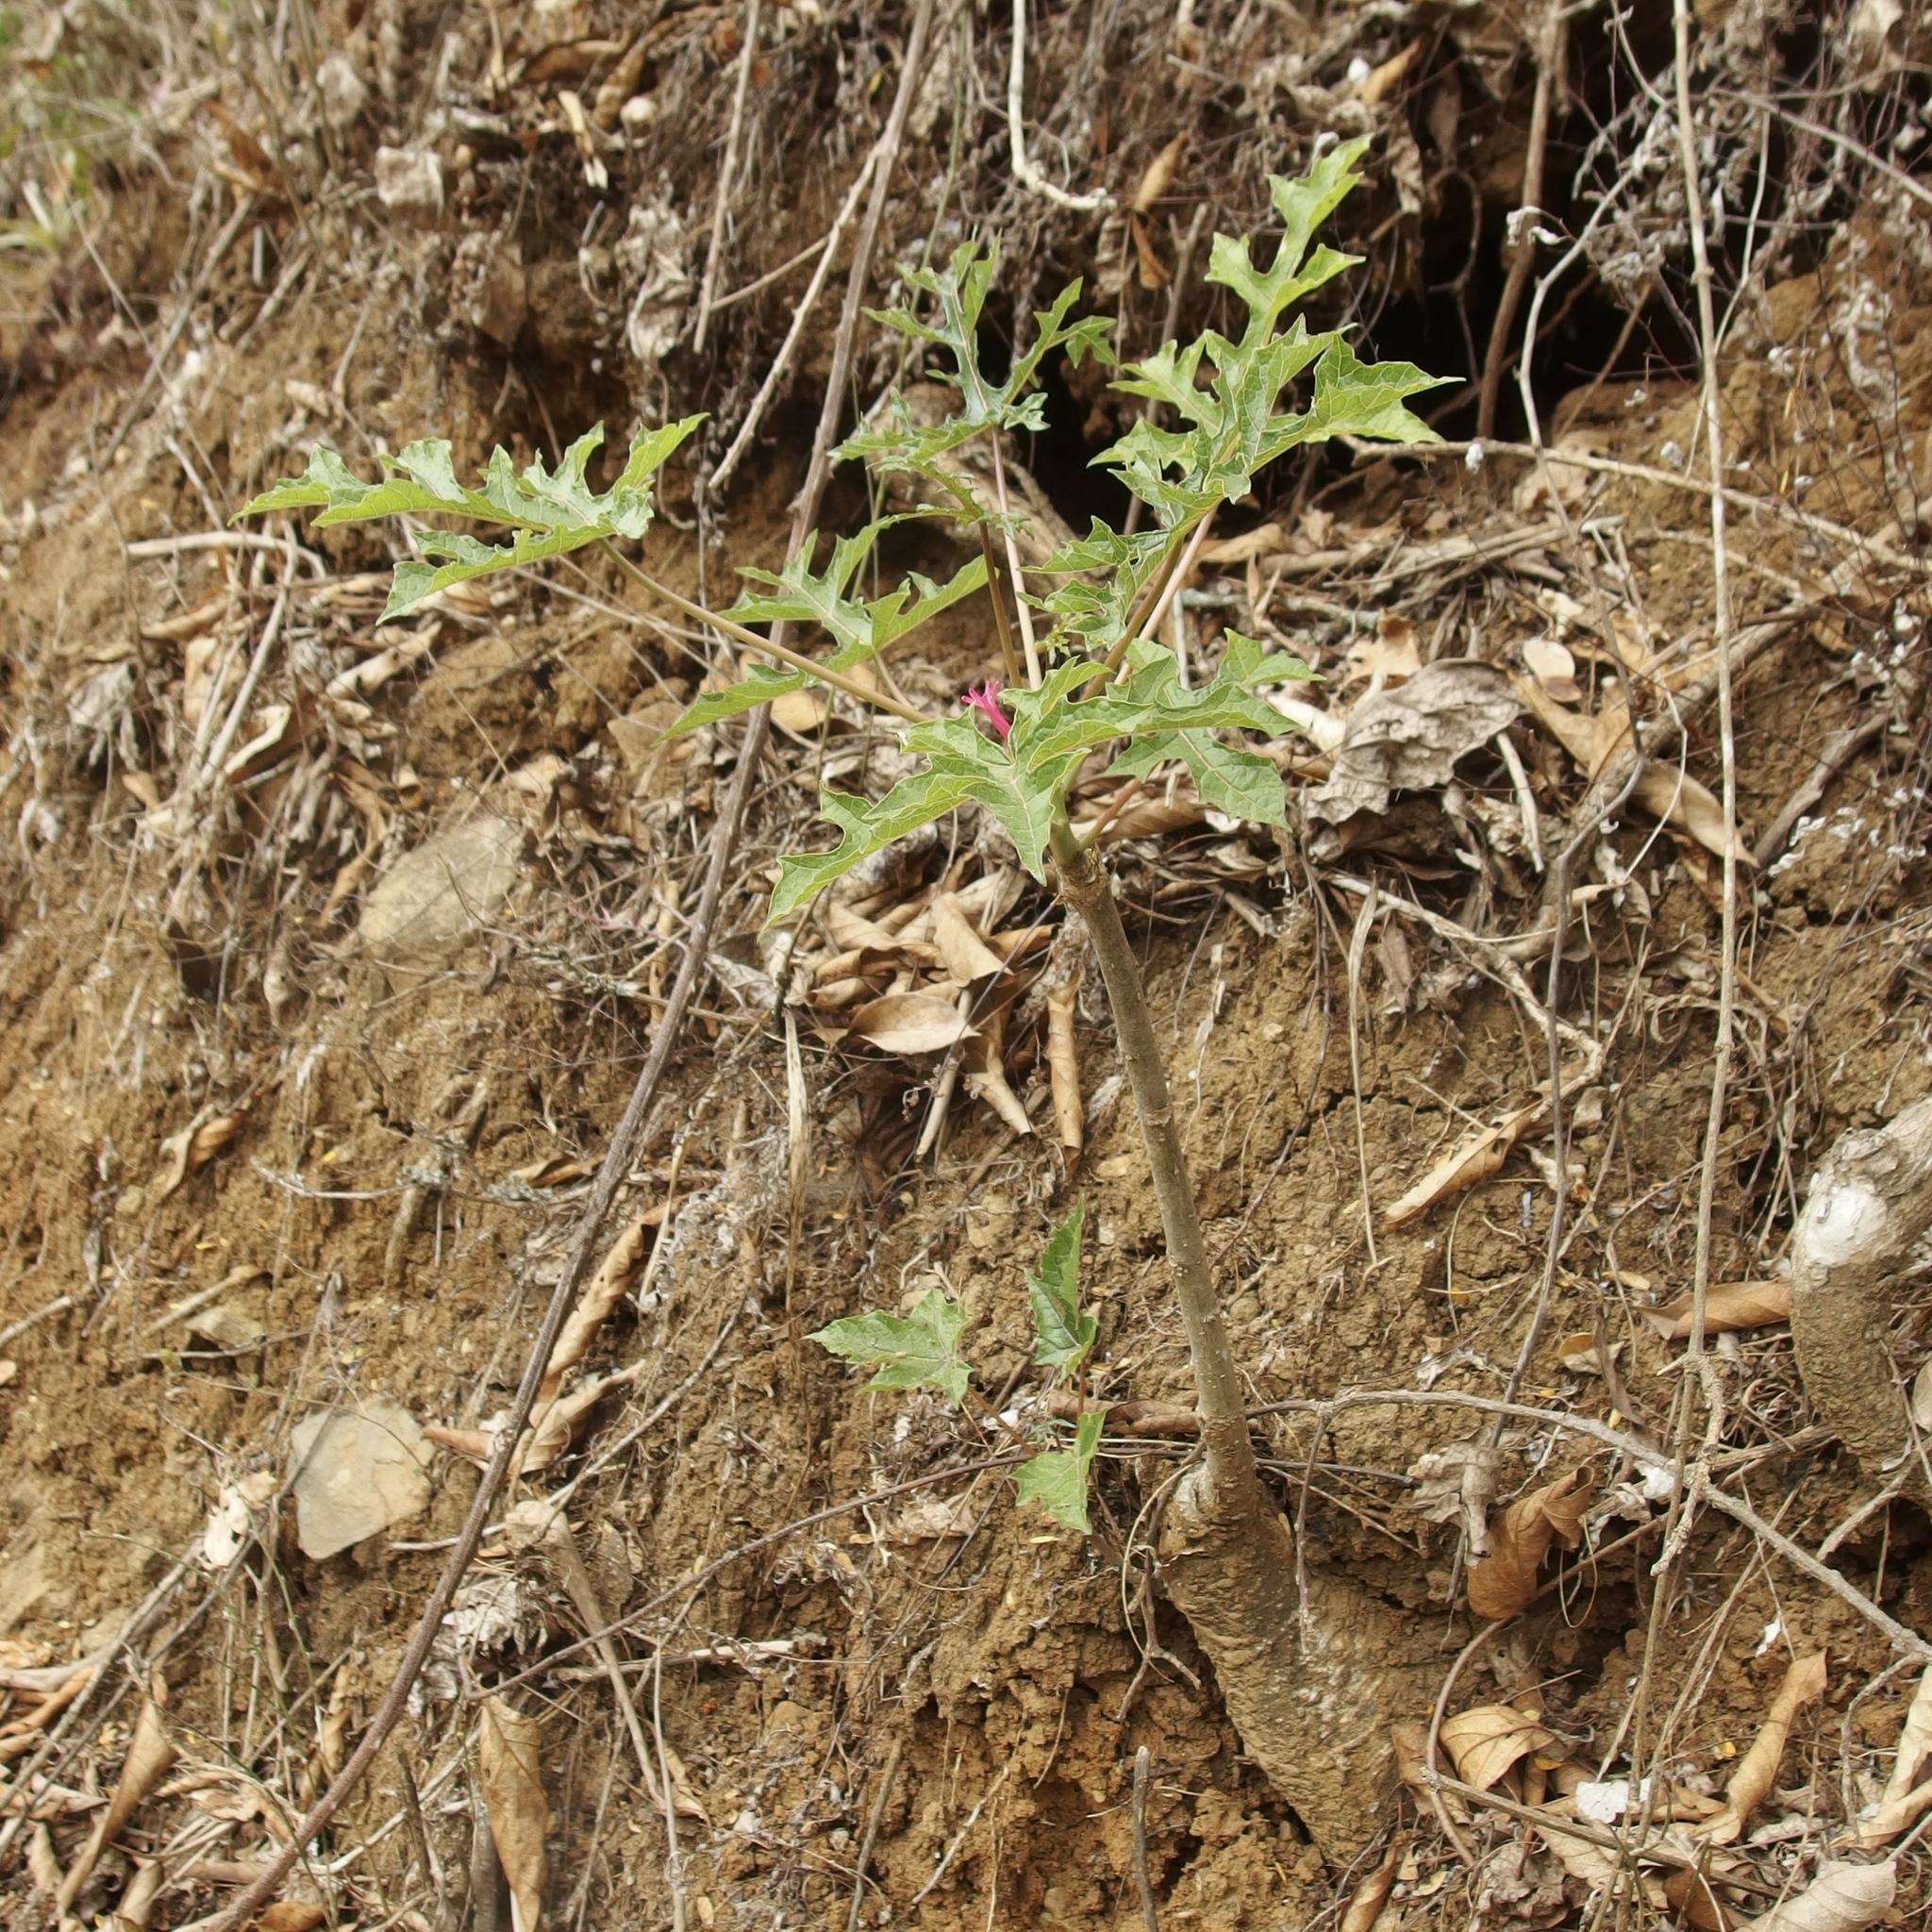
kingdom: Plantae
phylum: Tracheophyta
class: Magnoliopsida
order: Brassicales
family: Caricaceae
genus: Vasconcellea
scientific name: Vasconcellea parviflora
